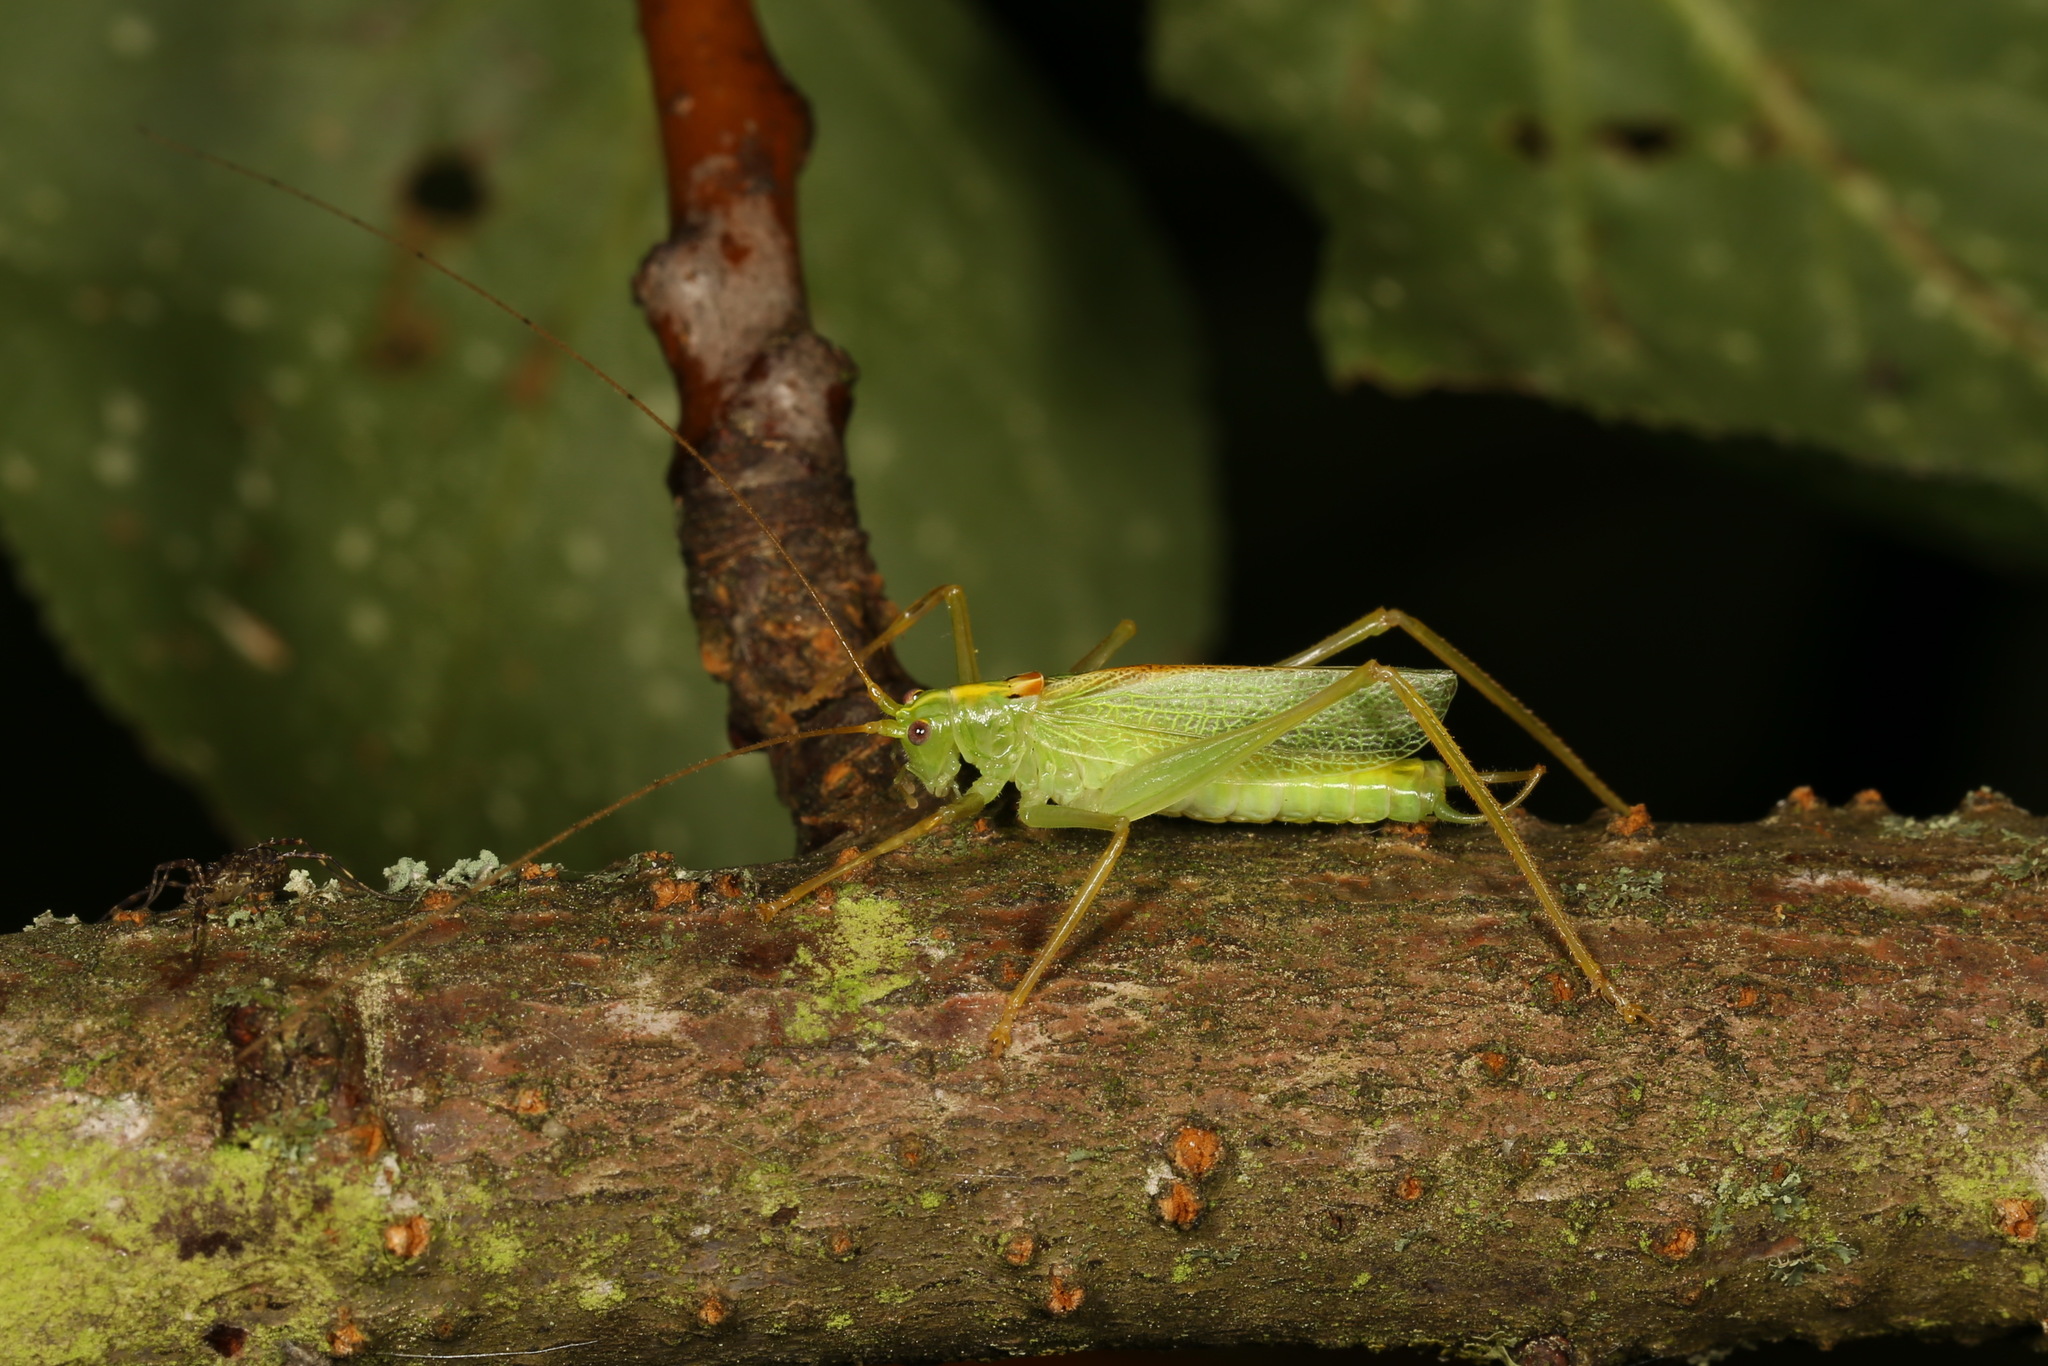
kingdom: Animalia
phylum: Arthropoda
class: Insecta
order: Orthoptera
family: Tettigoniidae
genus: Meconema
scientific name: Meconema thalassinum
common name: Oak bush-cricket
